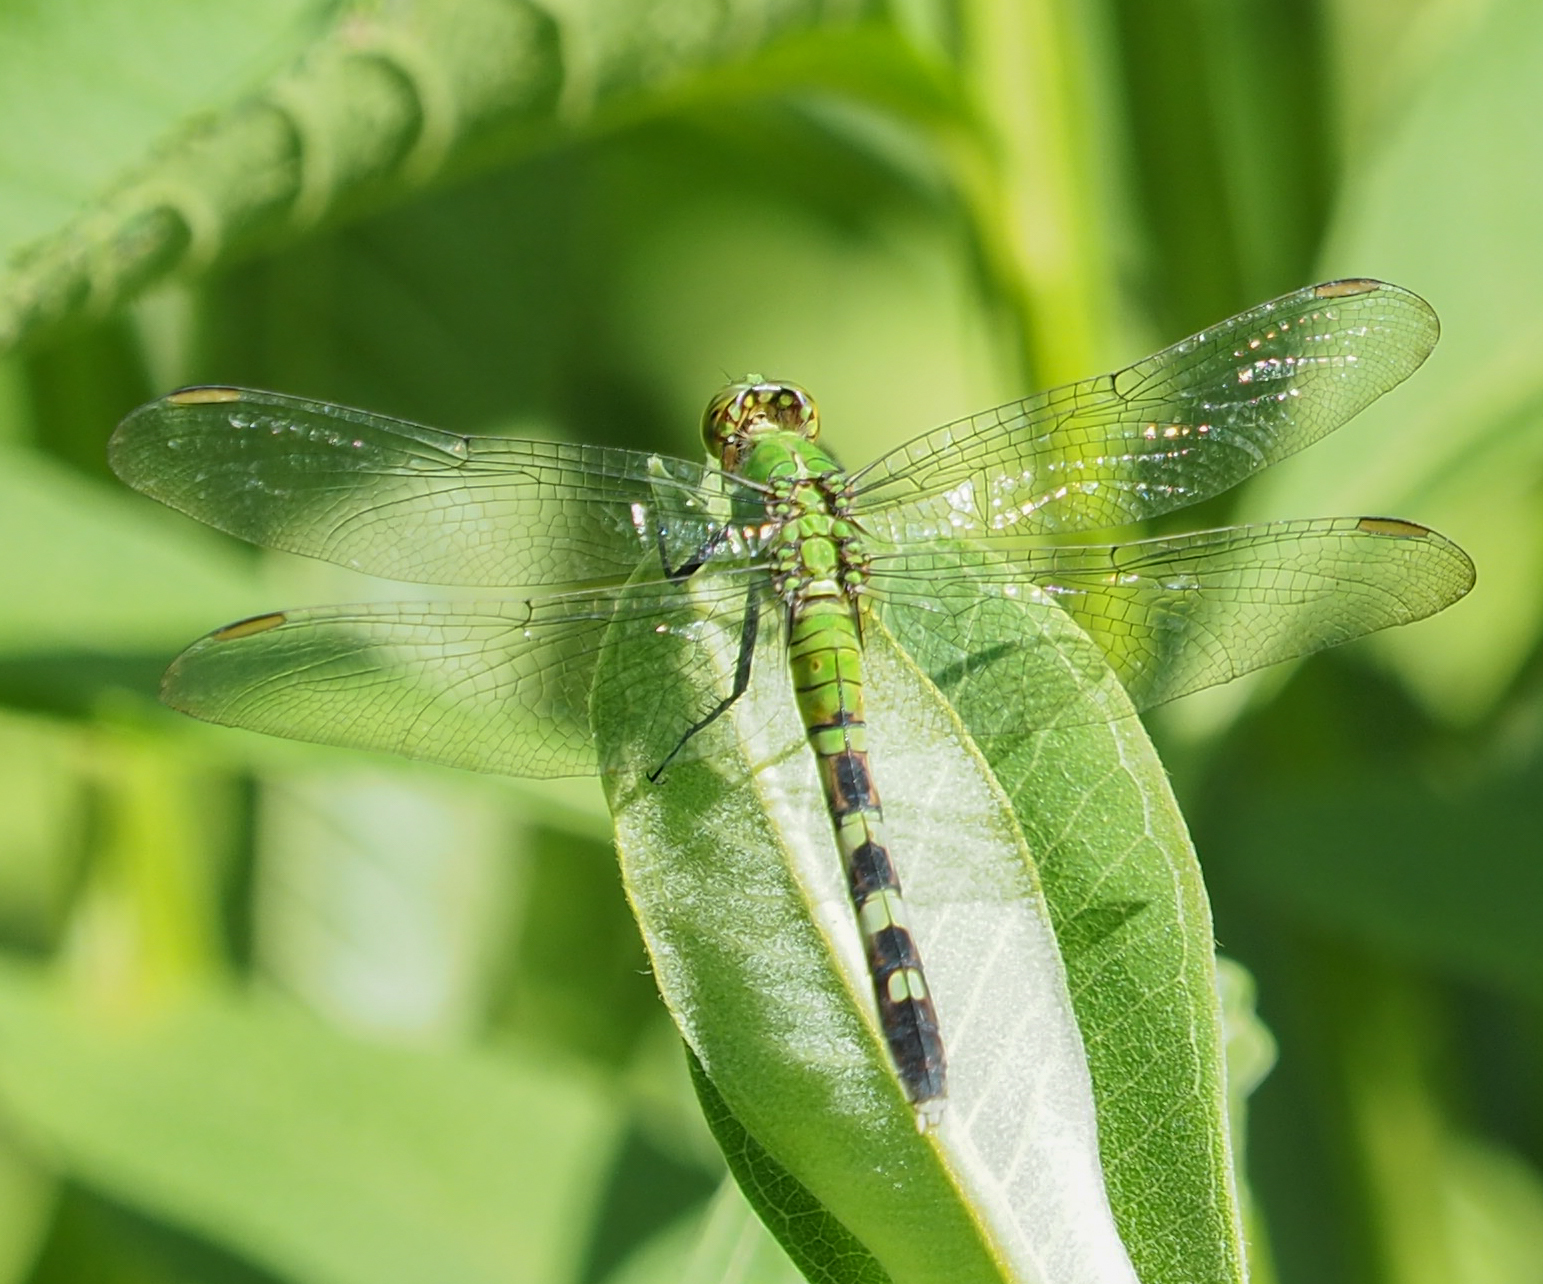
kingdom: Animalia
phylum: Arthropoda
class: Insecta
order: Odonata
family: Libellulidae
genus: Erythemis
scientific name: Erythemis simplicicollis
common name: Eastern pondhawk
